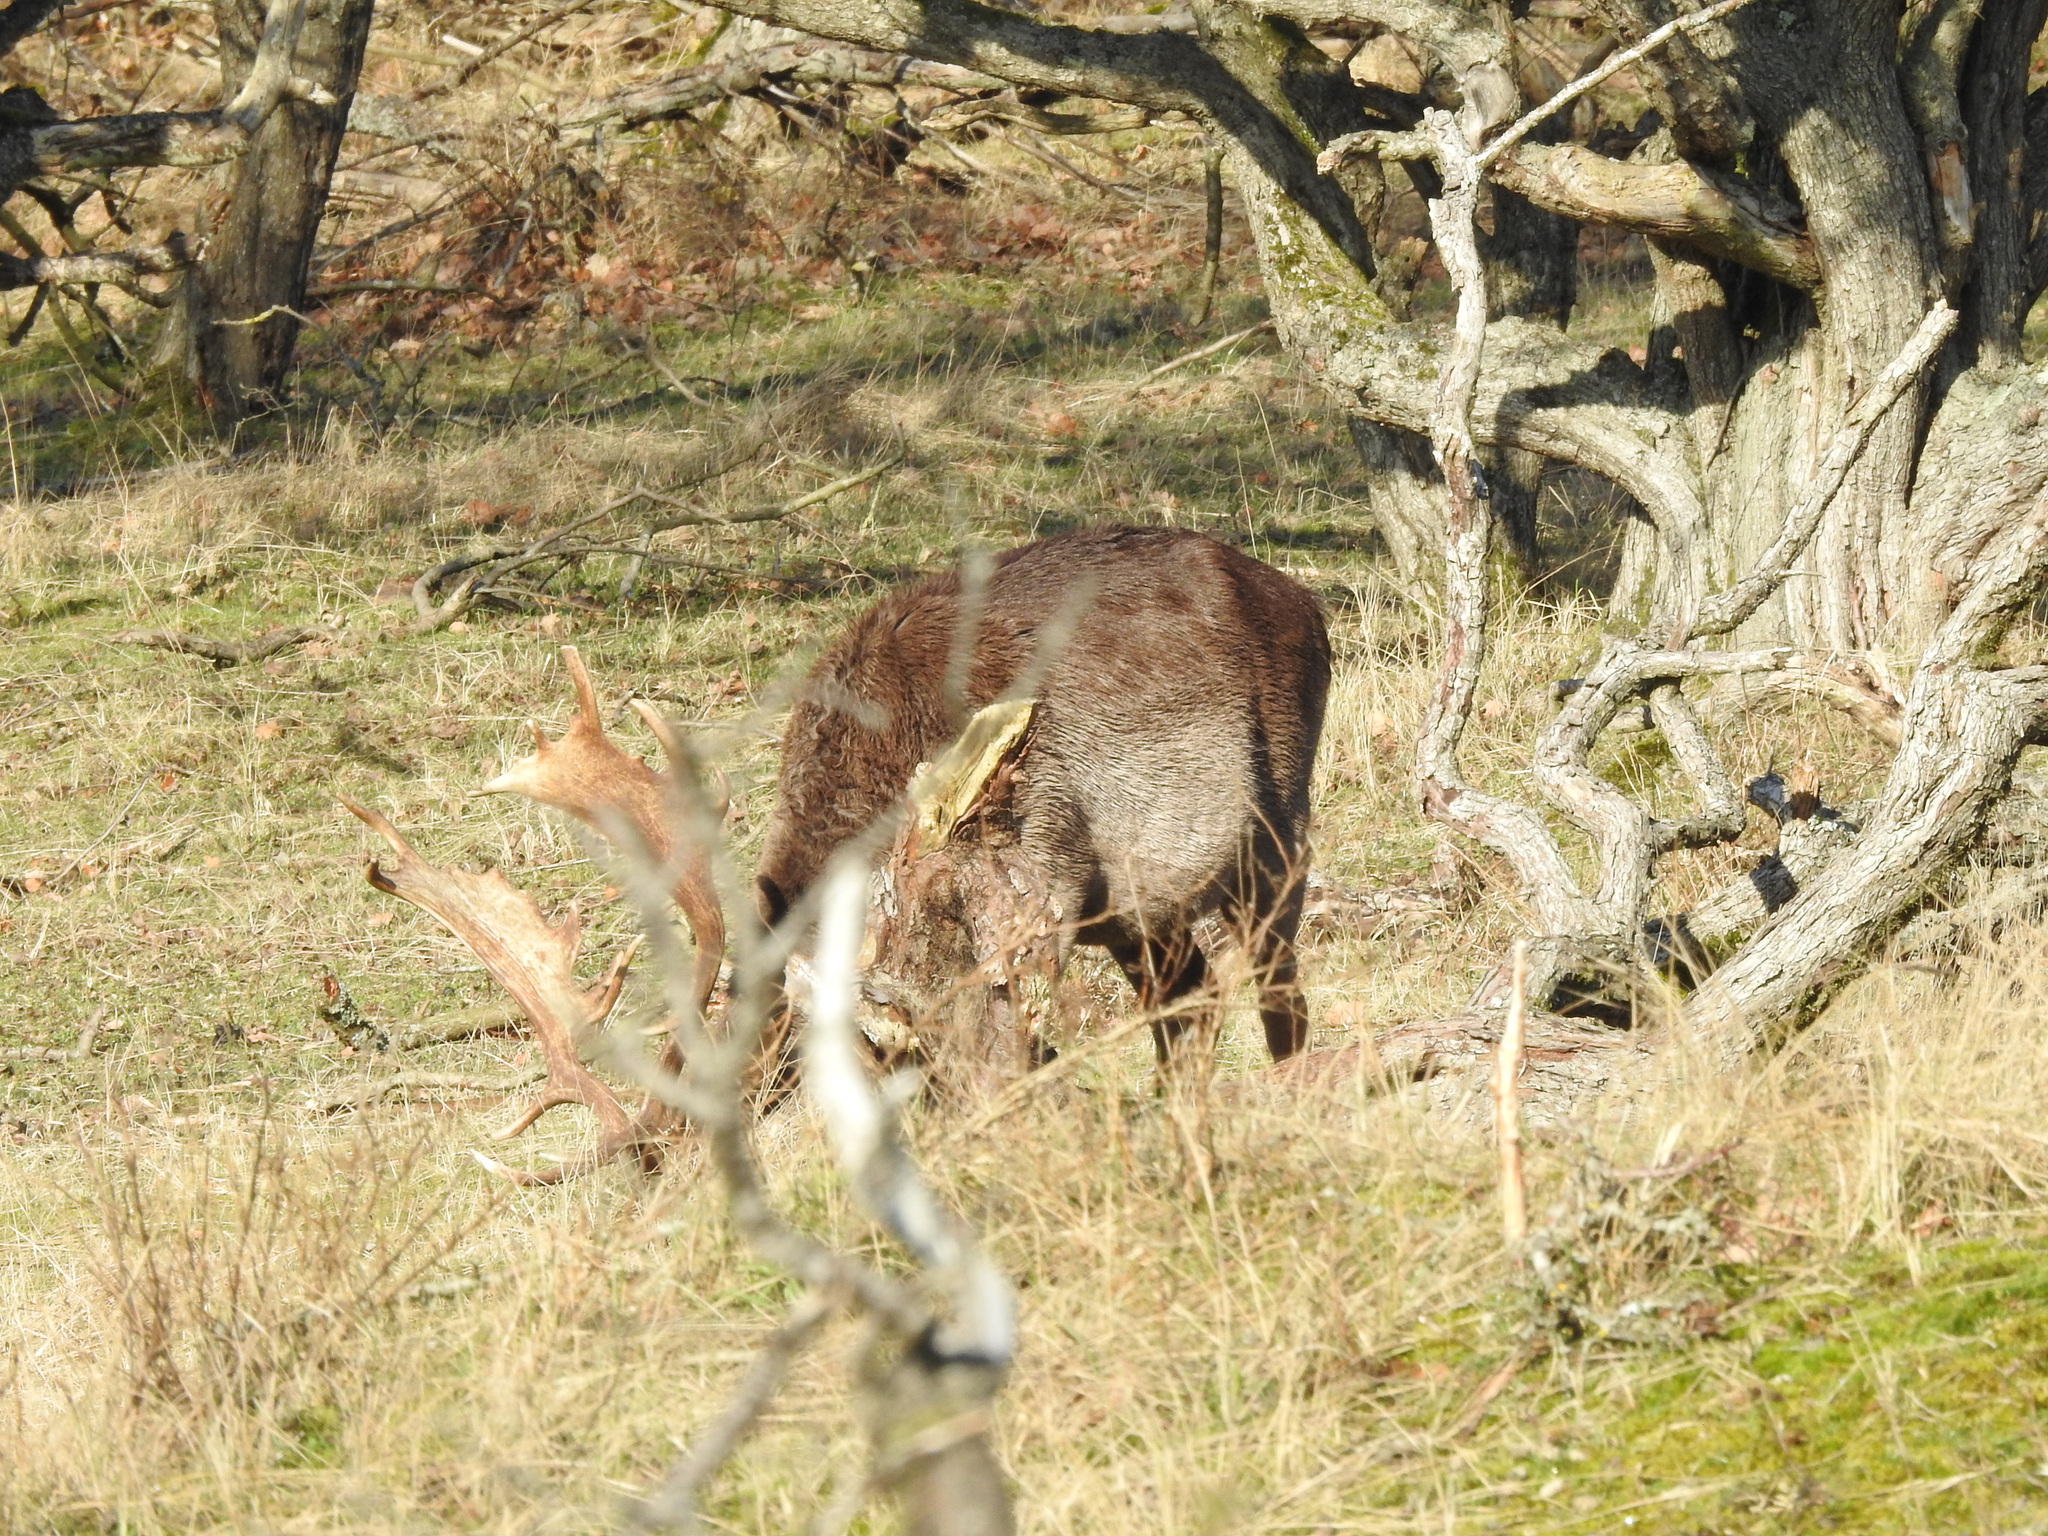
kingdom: Animalia
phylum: Chordata
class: Mammalia
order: Artiodactyla
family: Cervidae
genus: Dama
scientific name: Dama dama
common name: Fallow deer
